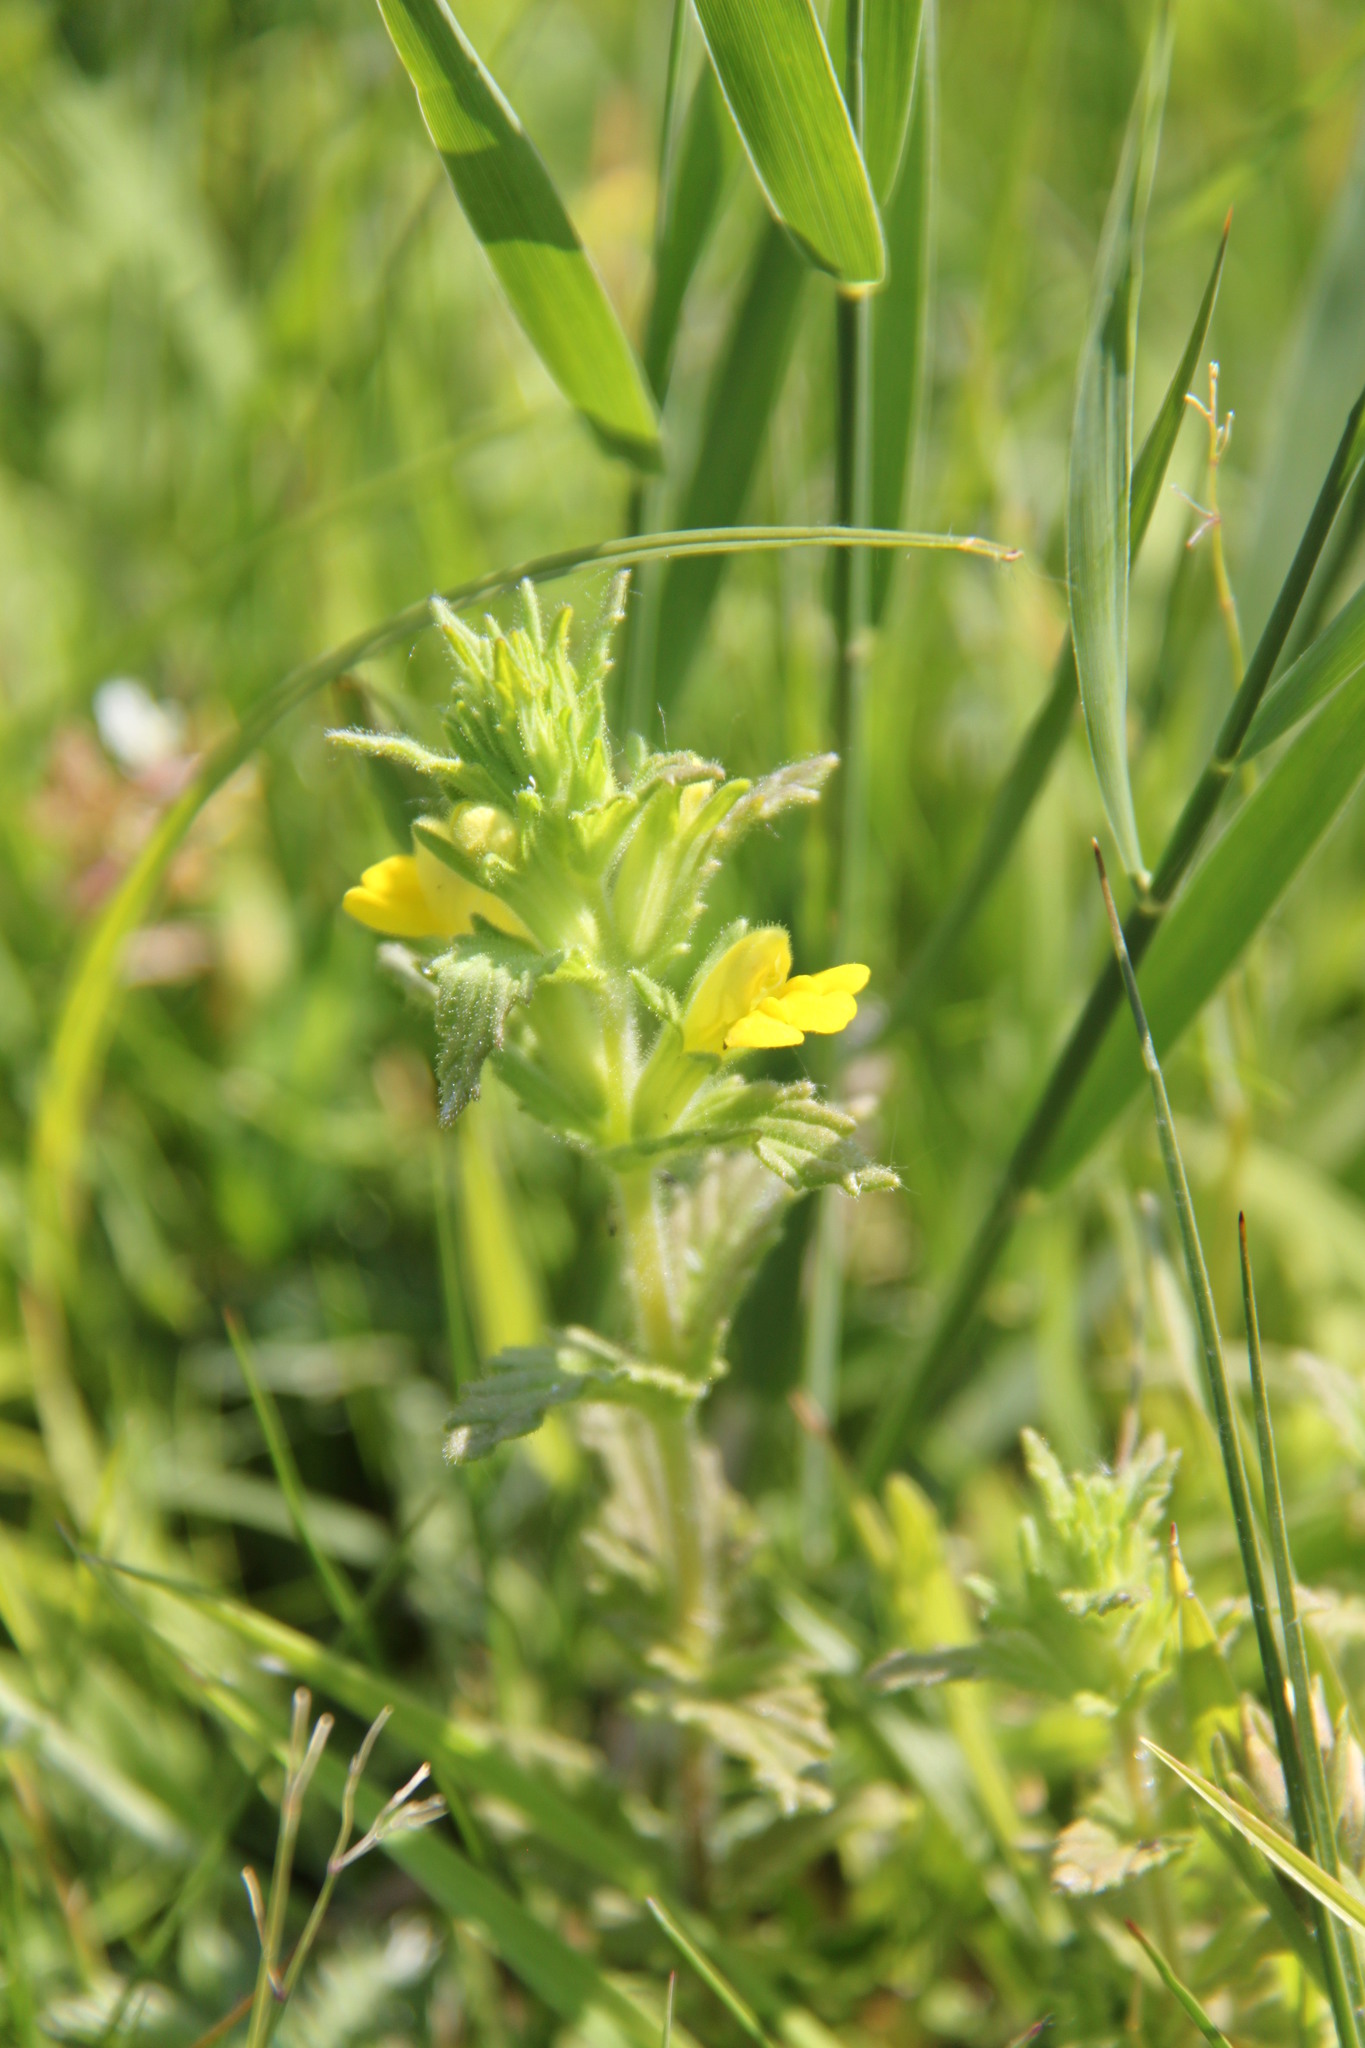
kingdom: Plantae
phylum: Tracheophyta
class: Magnoliopsida
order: Lamiales
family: Orobanchaceae
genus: Bellardia
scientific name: Bellardia viscosa
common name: Sticky parentucellia
